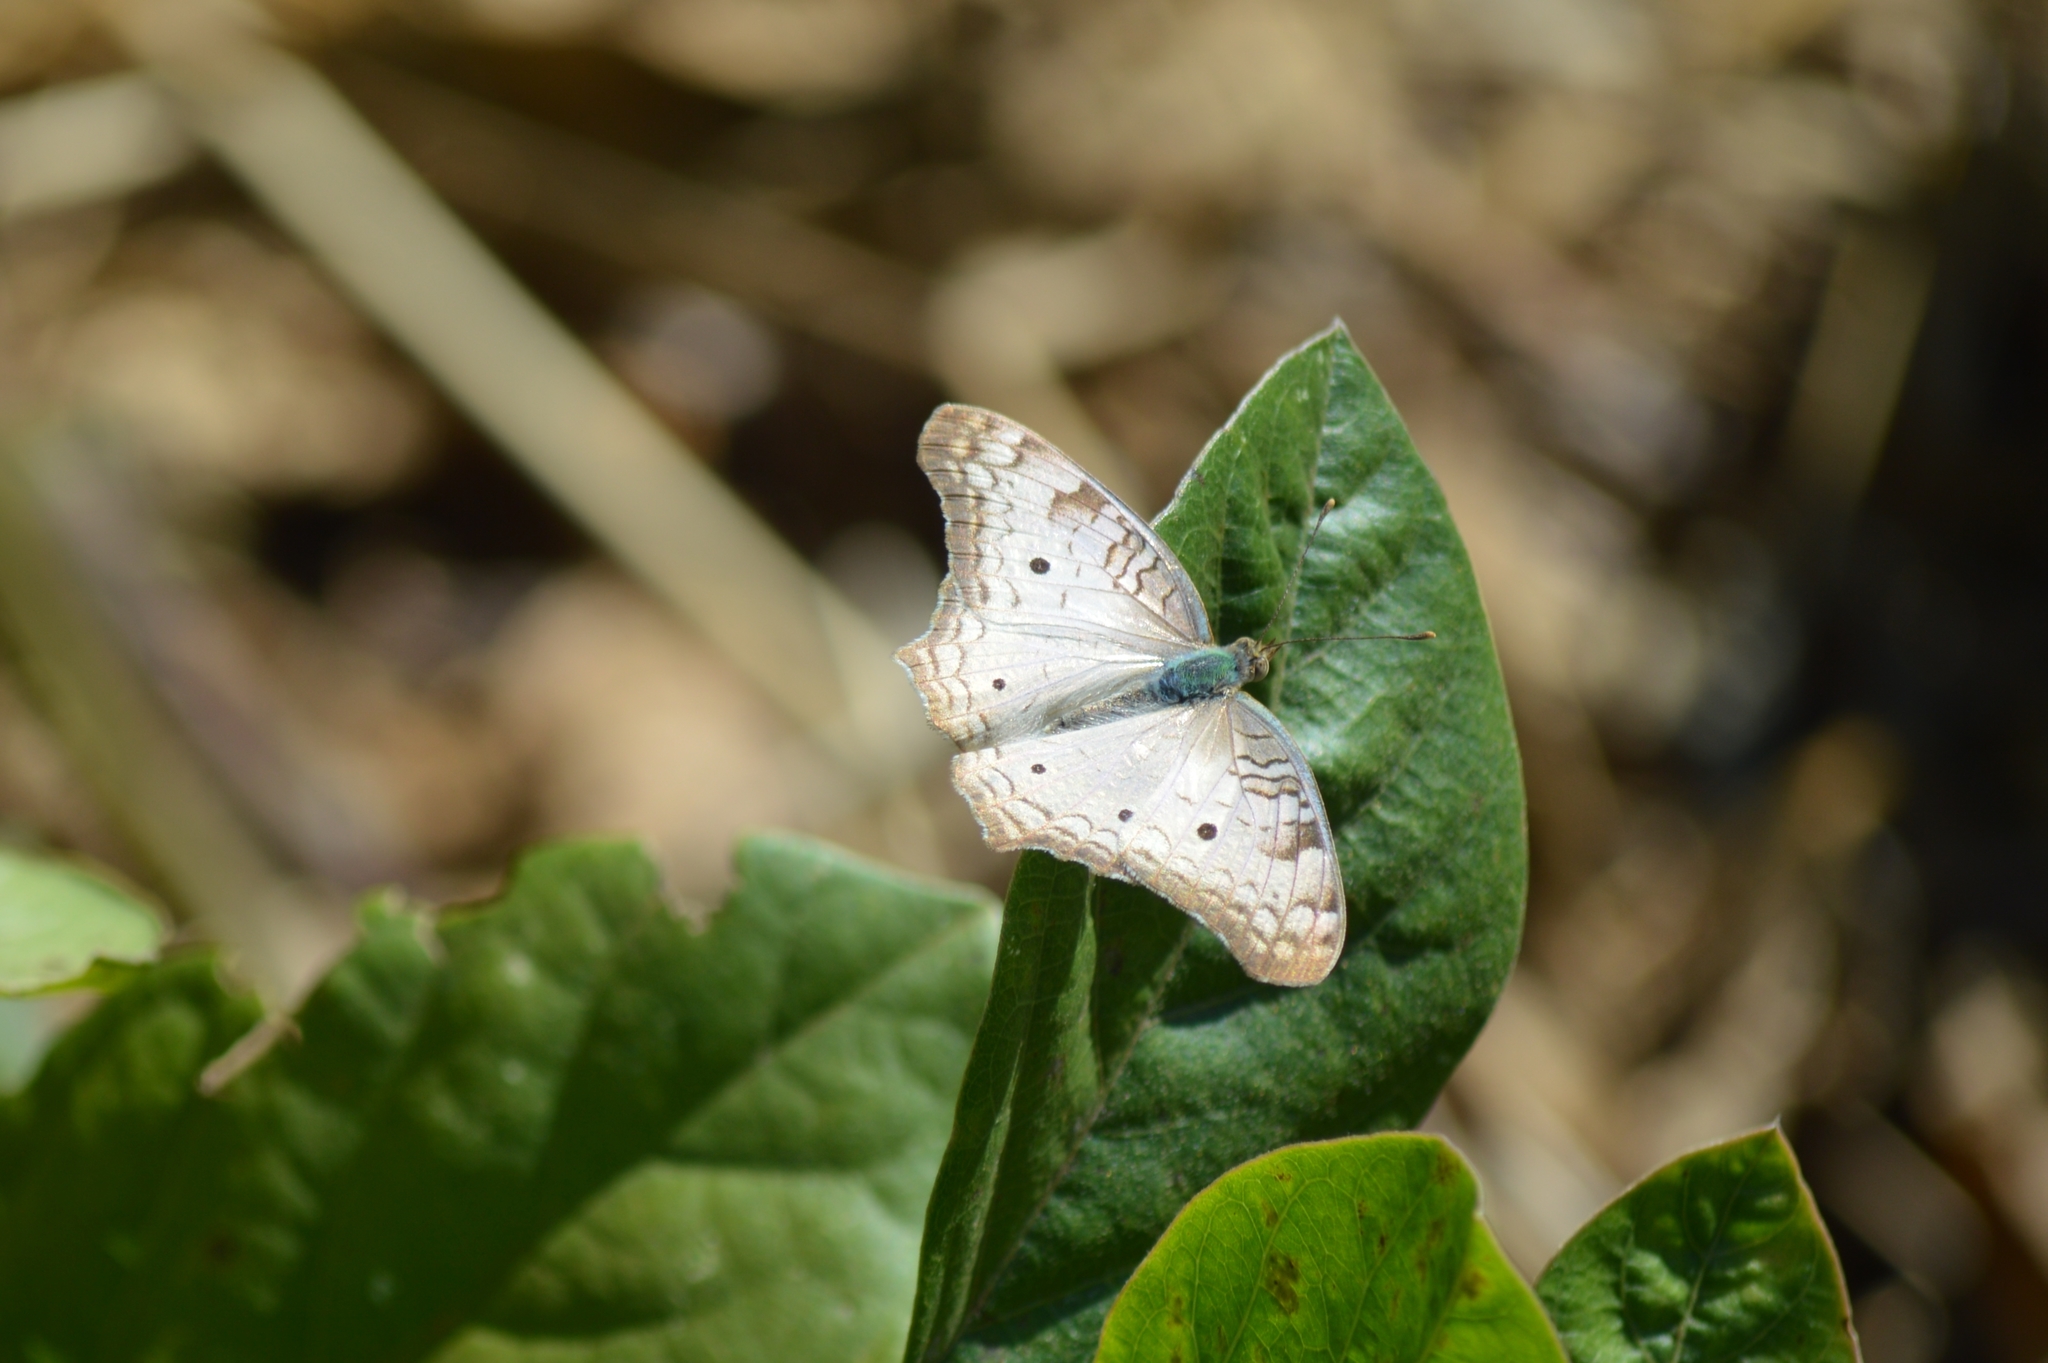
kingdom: Animalia
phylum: Arthropoda
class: Insecta
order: Lepidoptera
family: Nymphalidae
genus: Anartia
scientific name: Anartia jatrophae
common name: White peacock
